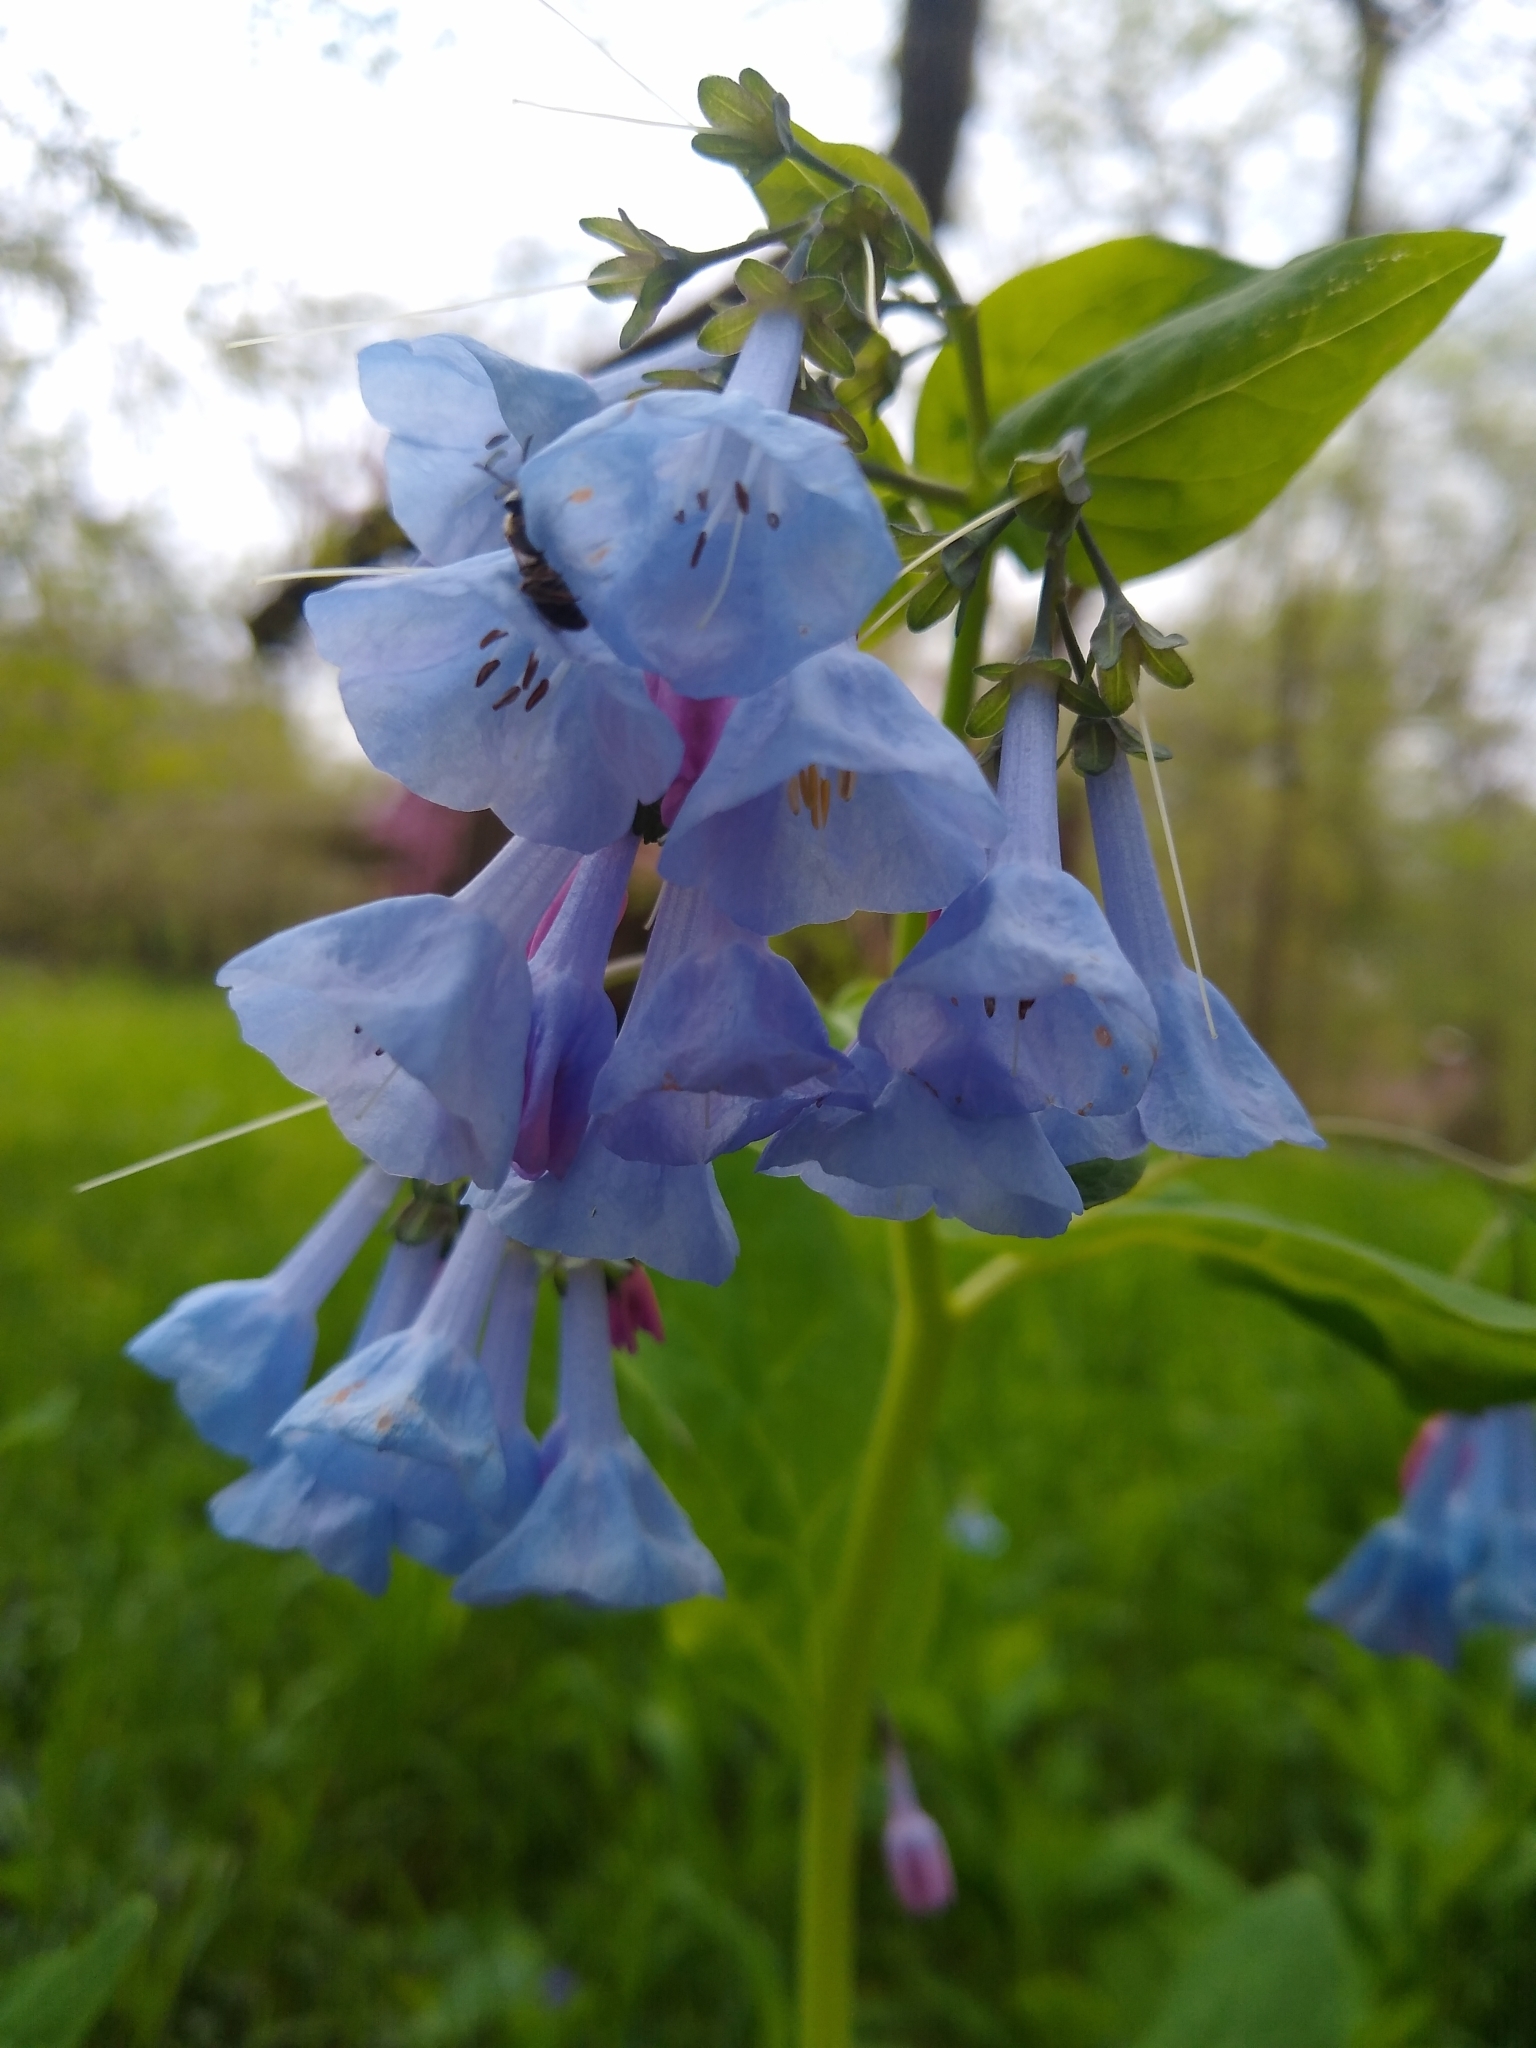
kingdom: Plantae
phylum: Tracheophyta
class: Magnoliopsida
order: Boraginales
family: Boraginaceae
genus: Mertensia
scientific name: Mertensia virginica
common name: Virginia bluebells
